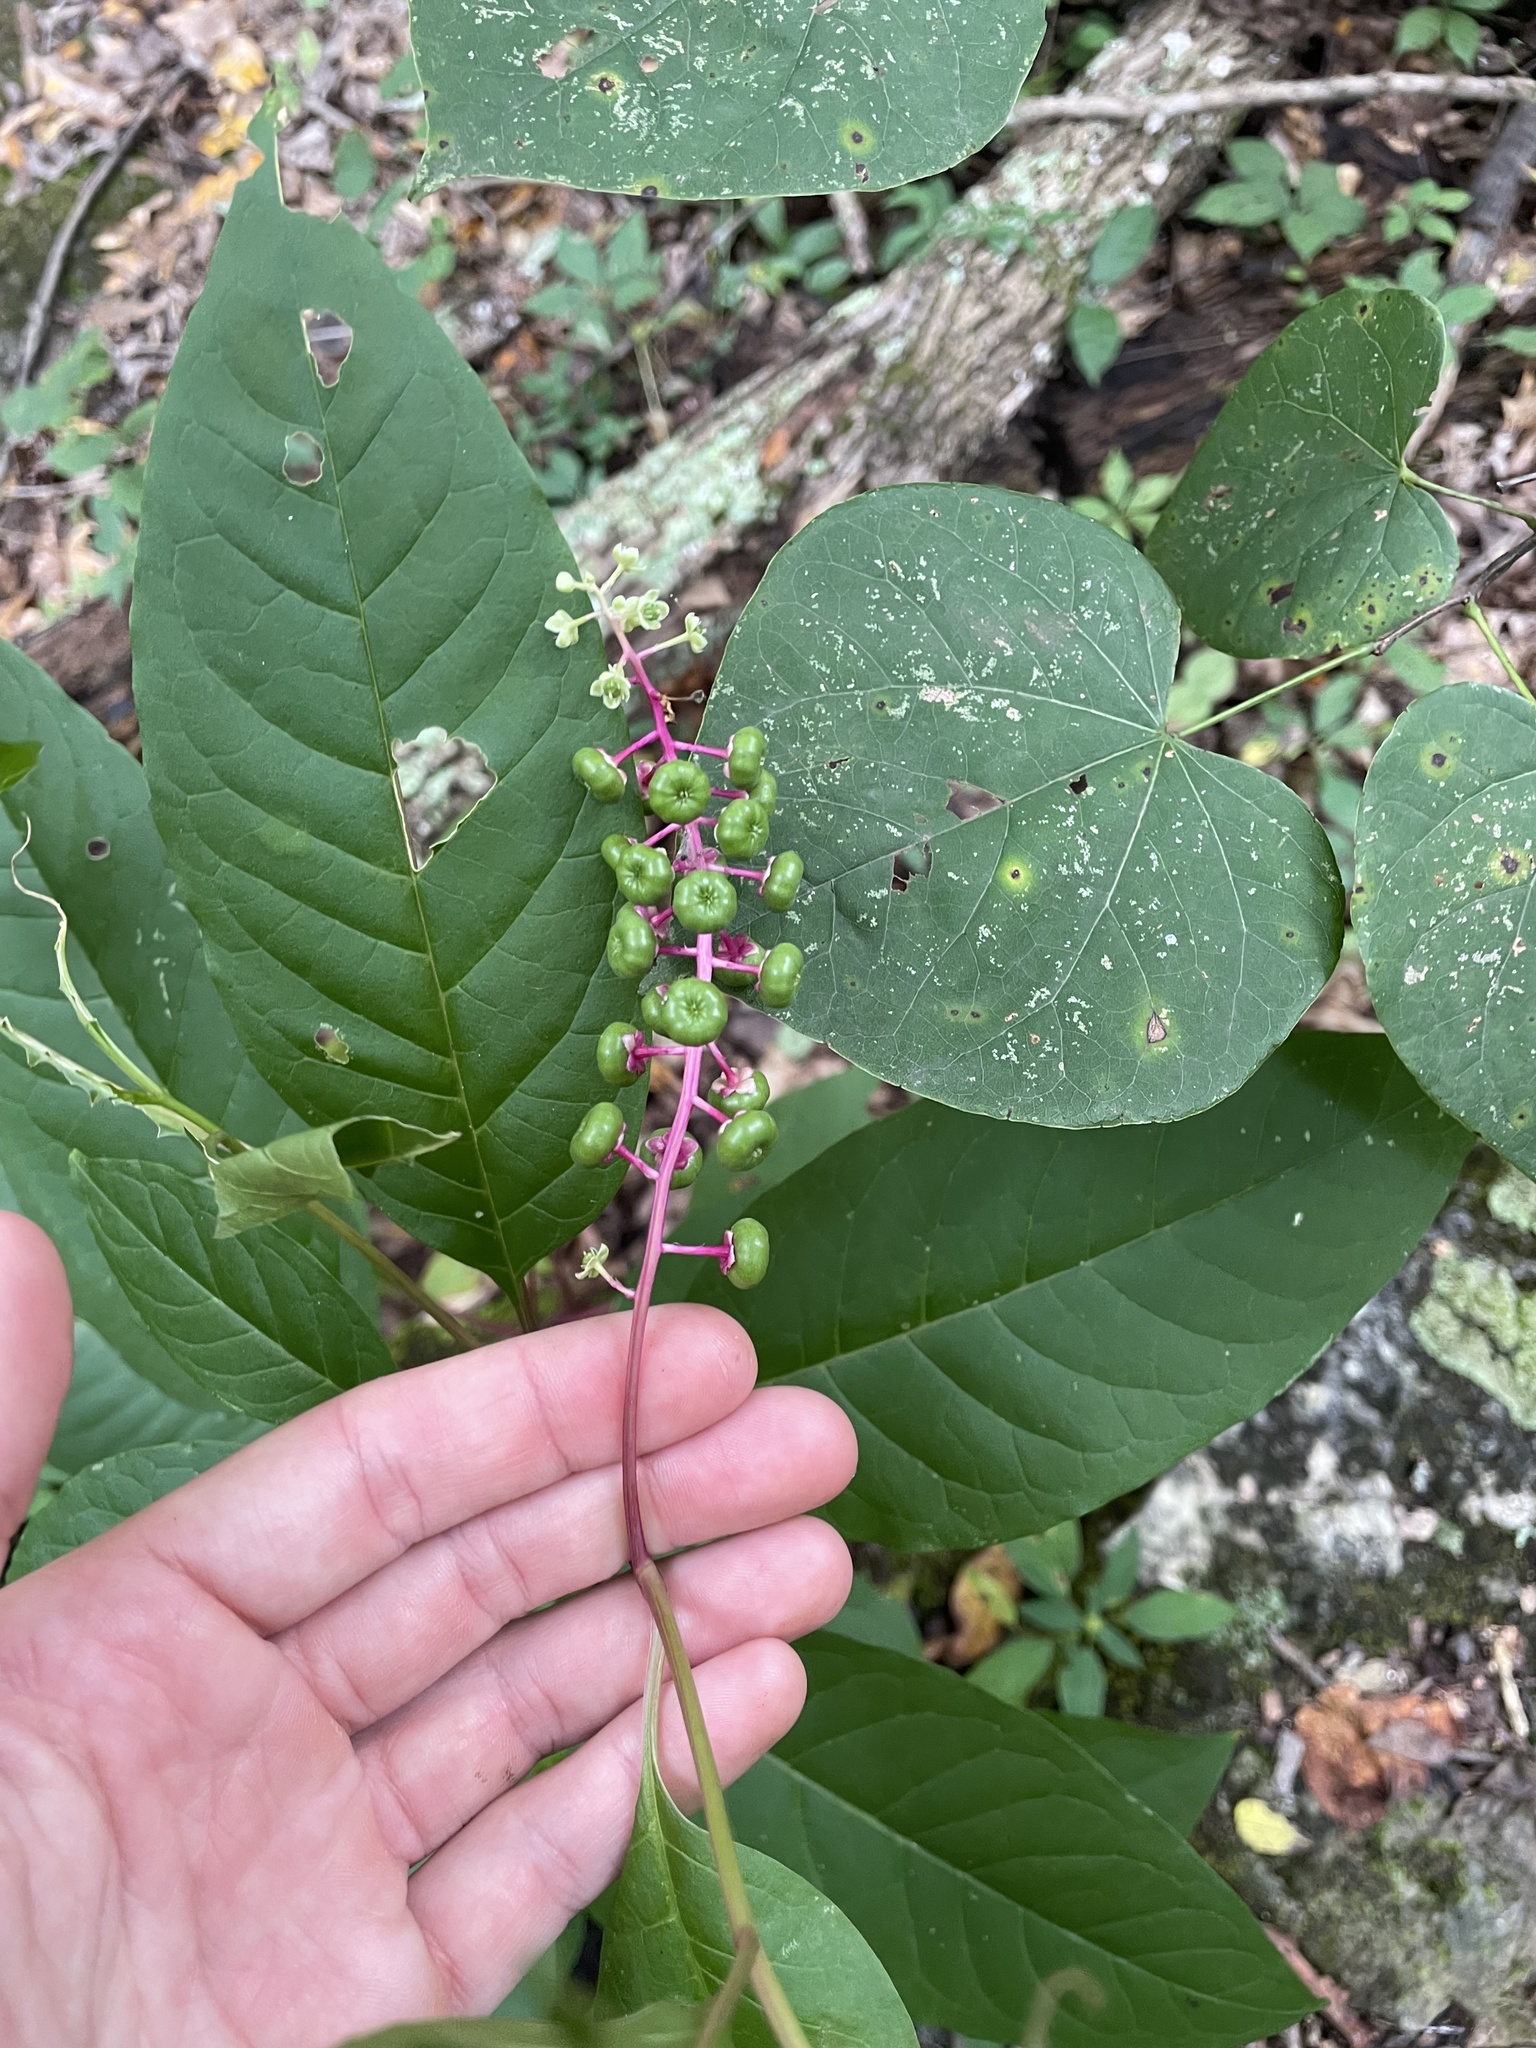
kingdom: Plantae
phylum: Tracheophyta
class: Magnoliopsida
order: Caryophyllales
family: Phytolaccaceae
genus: Phytolacca
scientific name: Phytolacca americana
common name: American pokeweed
